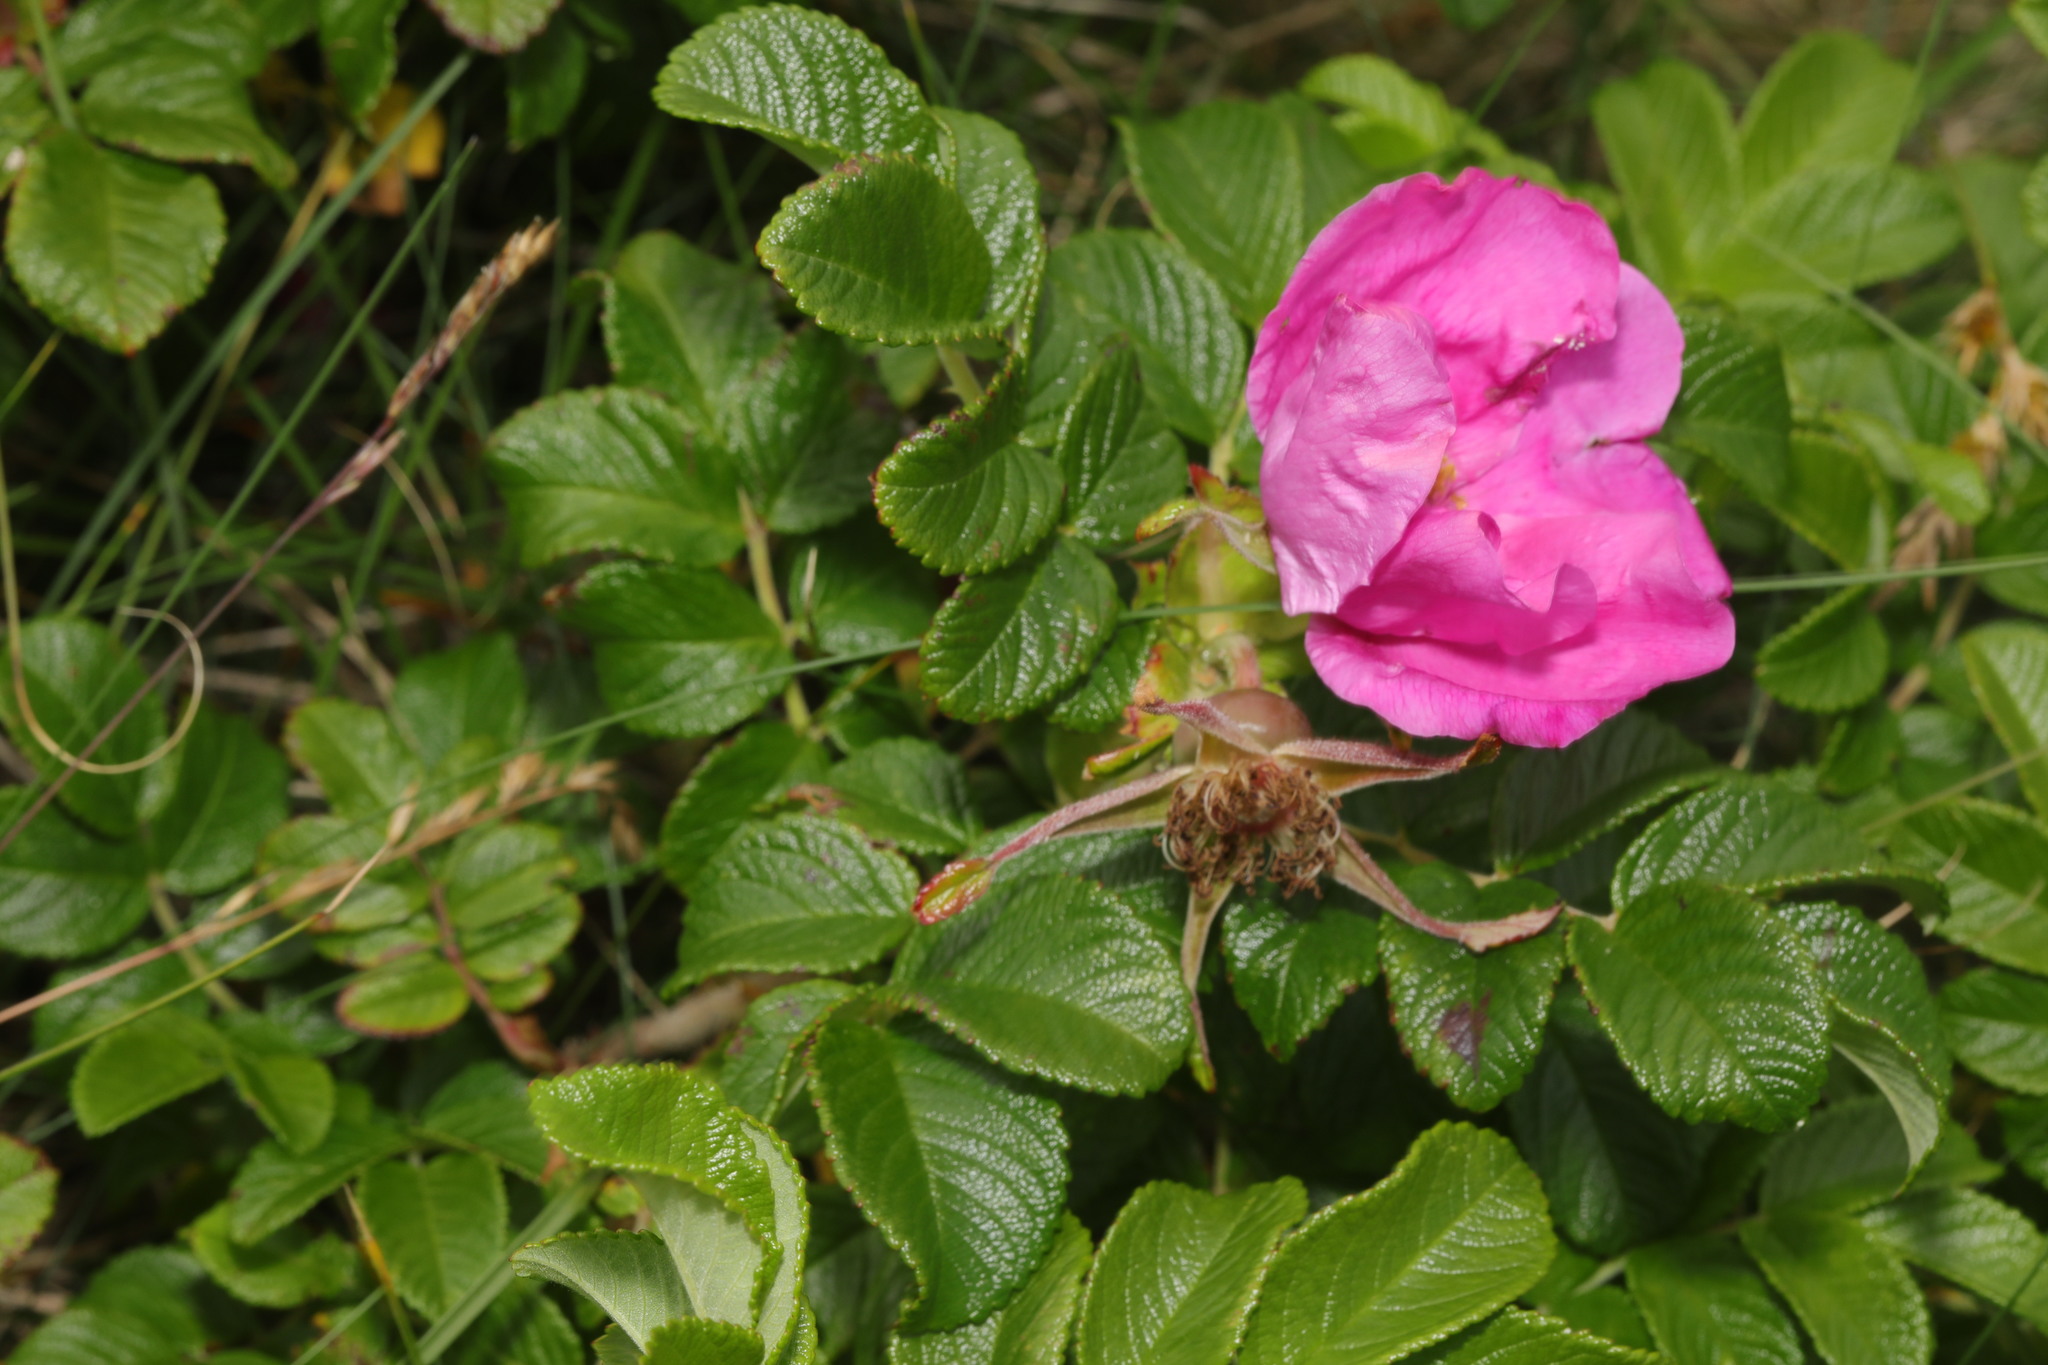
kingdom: Plantae
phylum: Tracheophyta
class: Magnoliopsida
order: Rosales
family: Rosaceae
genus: Rosa
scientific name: Rosa rugosa
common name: Japanese rose
